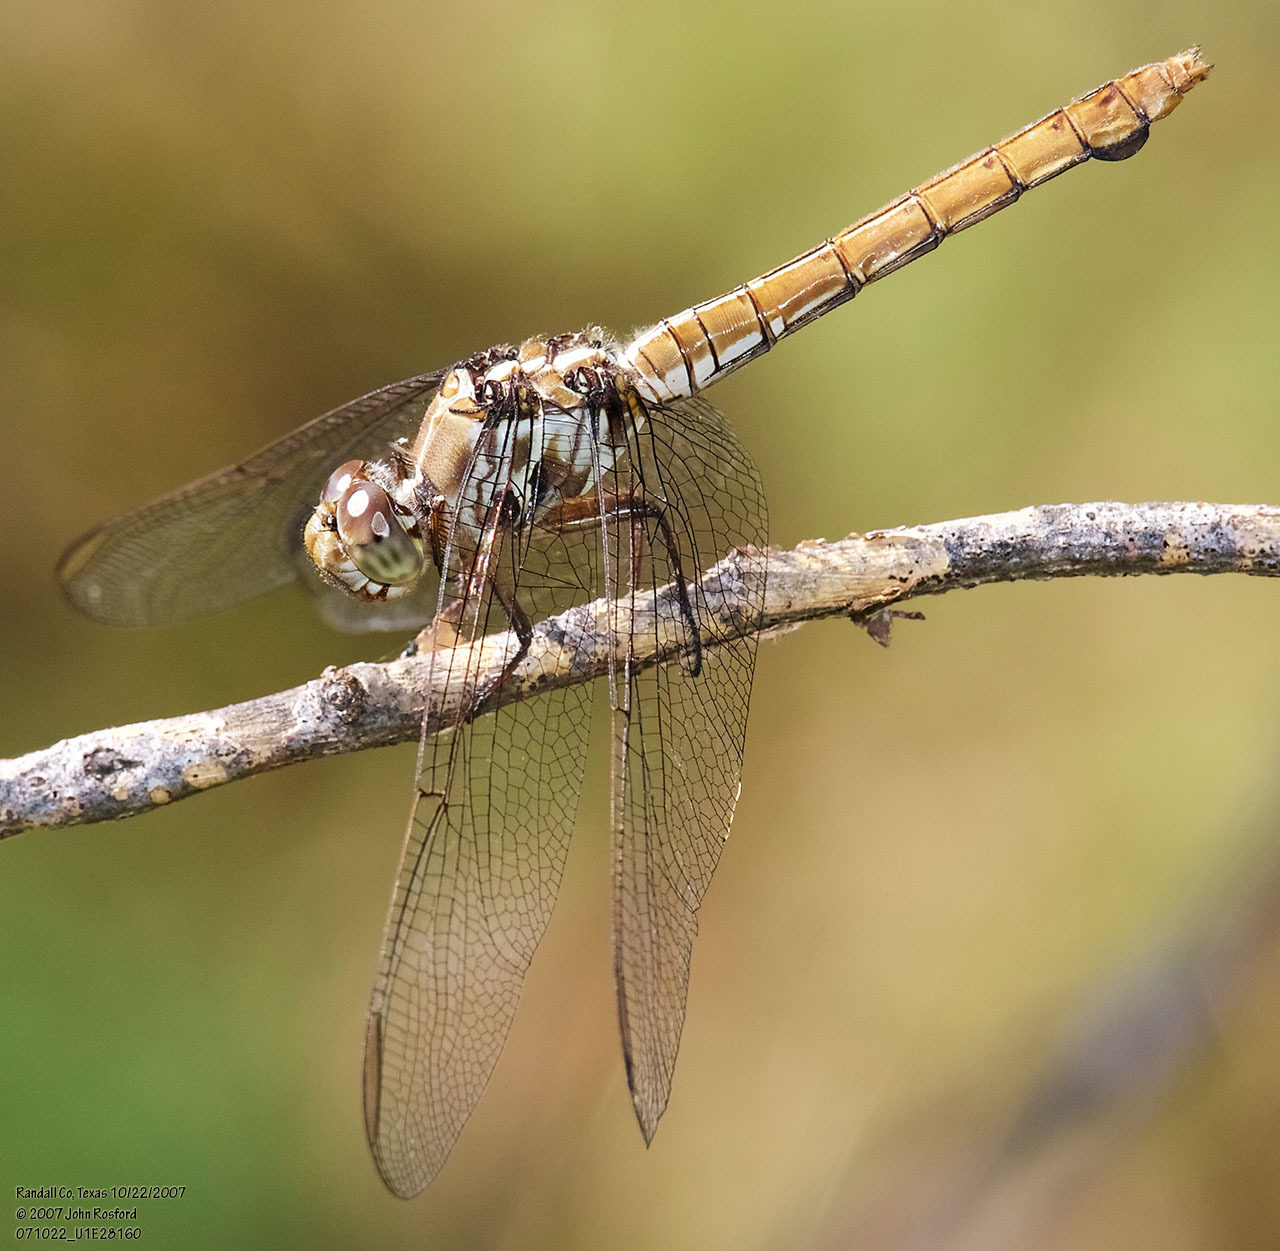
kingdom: Animalia
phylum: Arthropoda
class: Insecta
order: Odonata
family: Libellulidae
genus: Orthemis
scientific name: Orthemis ferruginea
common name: Roseate skimmer
